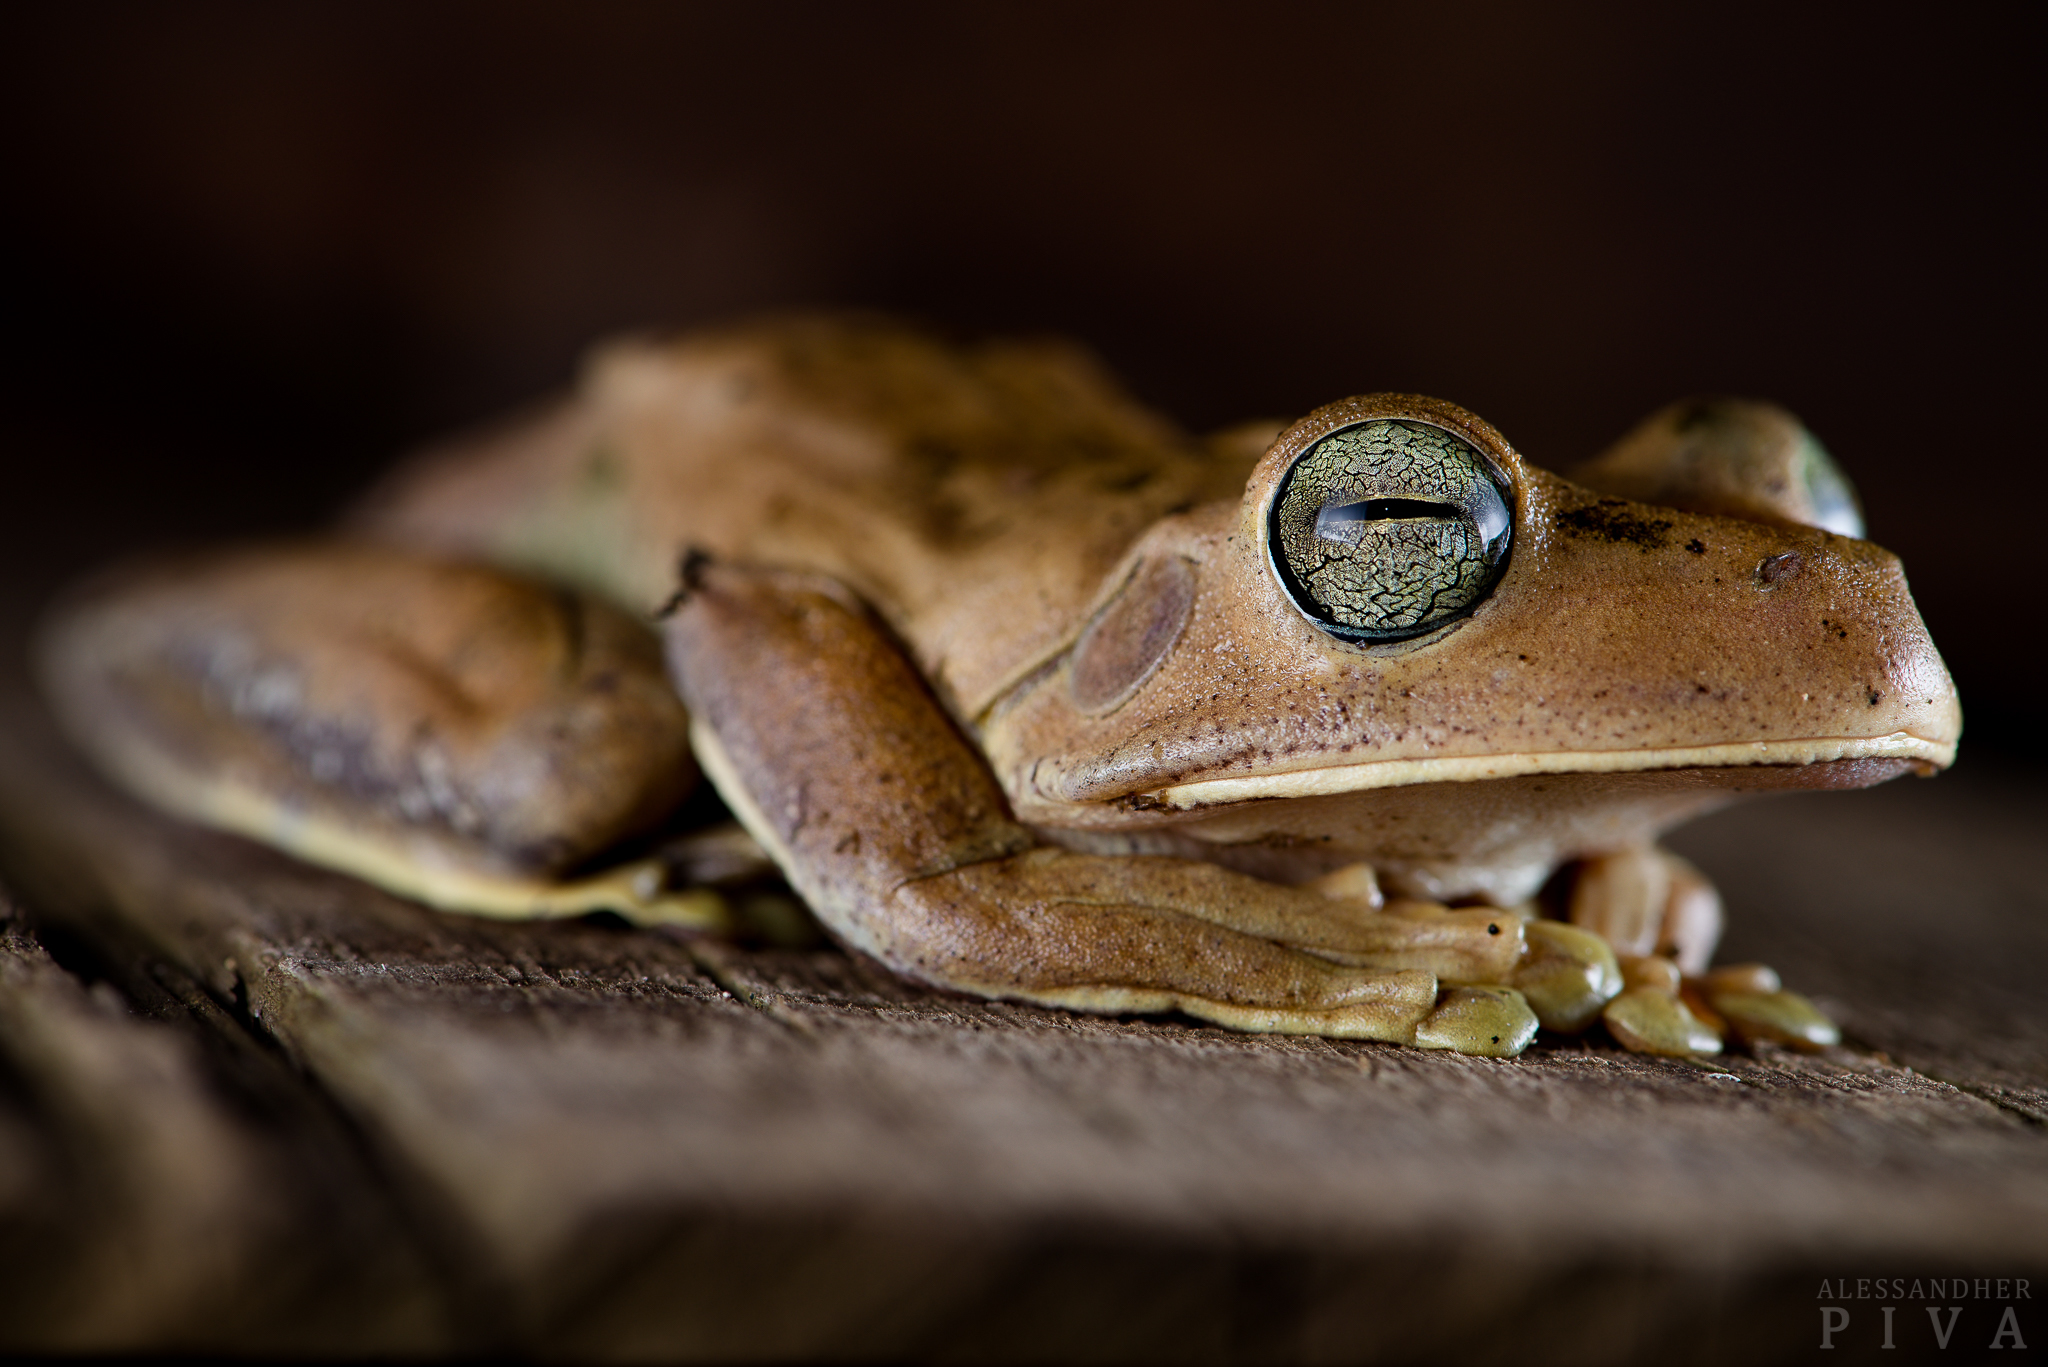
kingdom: Animalia
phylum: Chordata
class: Amphibia
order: Anura
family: Hylidae
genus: Boana
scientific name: Boana faber
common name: Blacksmith tree frog
